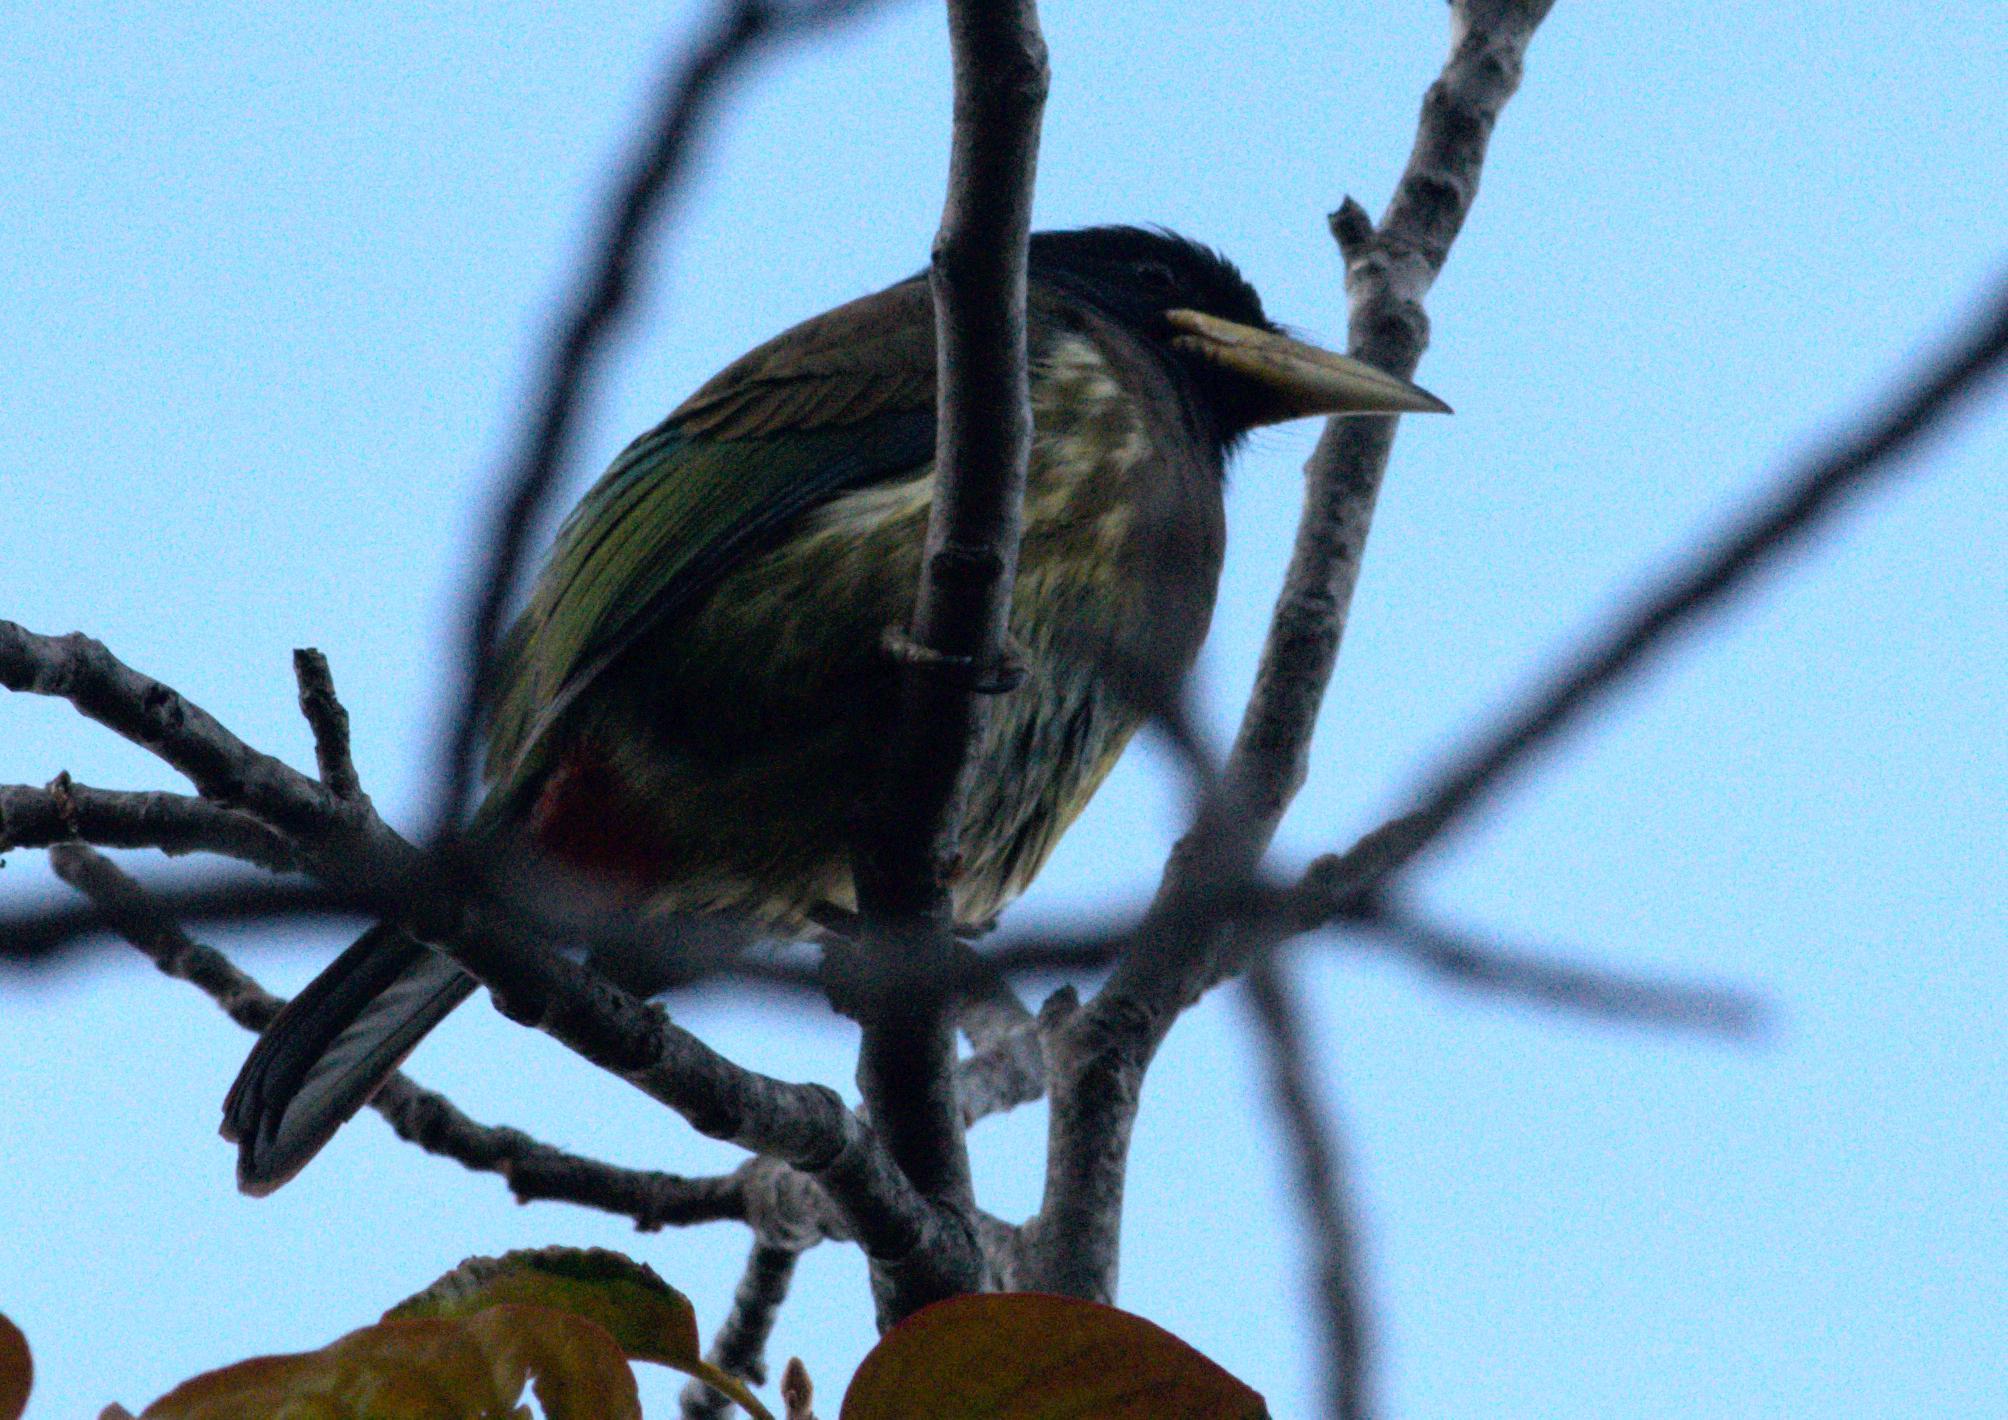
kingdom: Animalia
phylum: Chordata
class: Aves
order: Piciformes
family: Megalaimidae
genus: Psilopogon
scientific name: Psilopogon virens
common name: Great barbet
